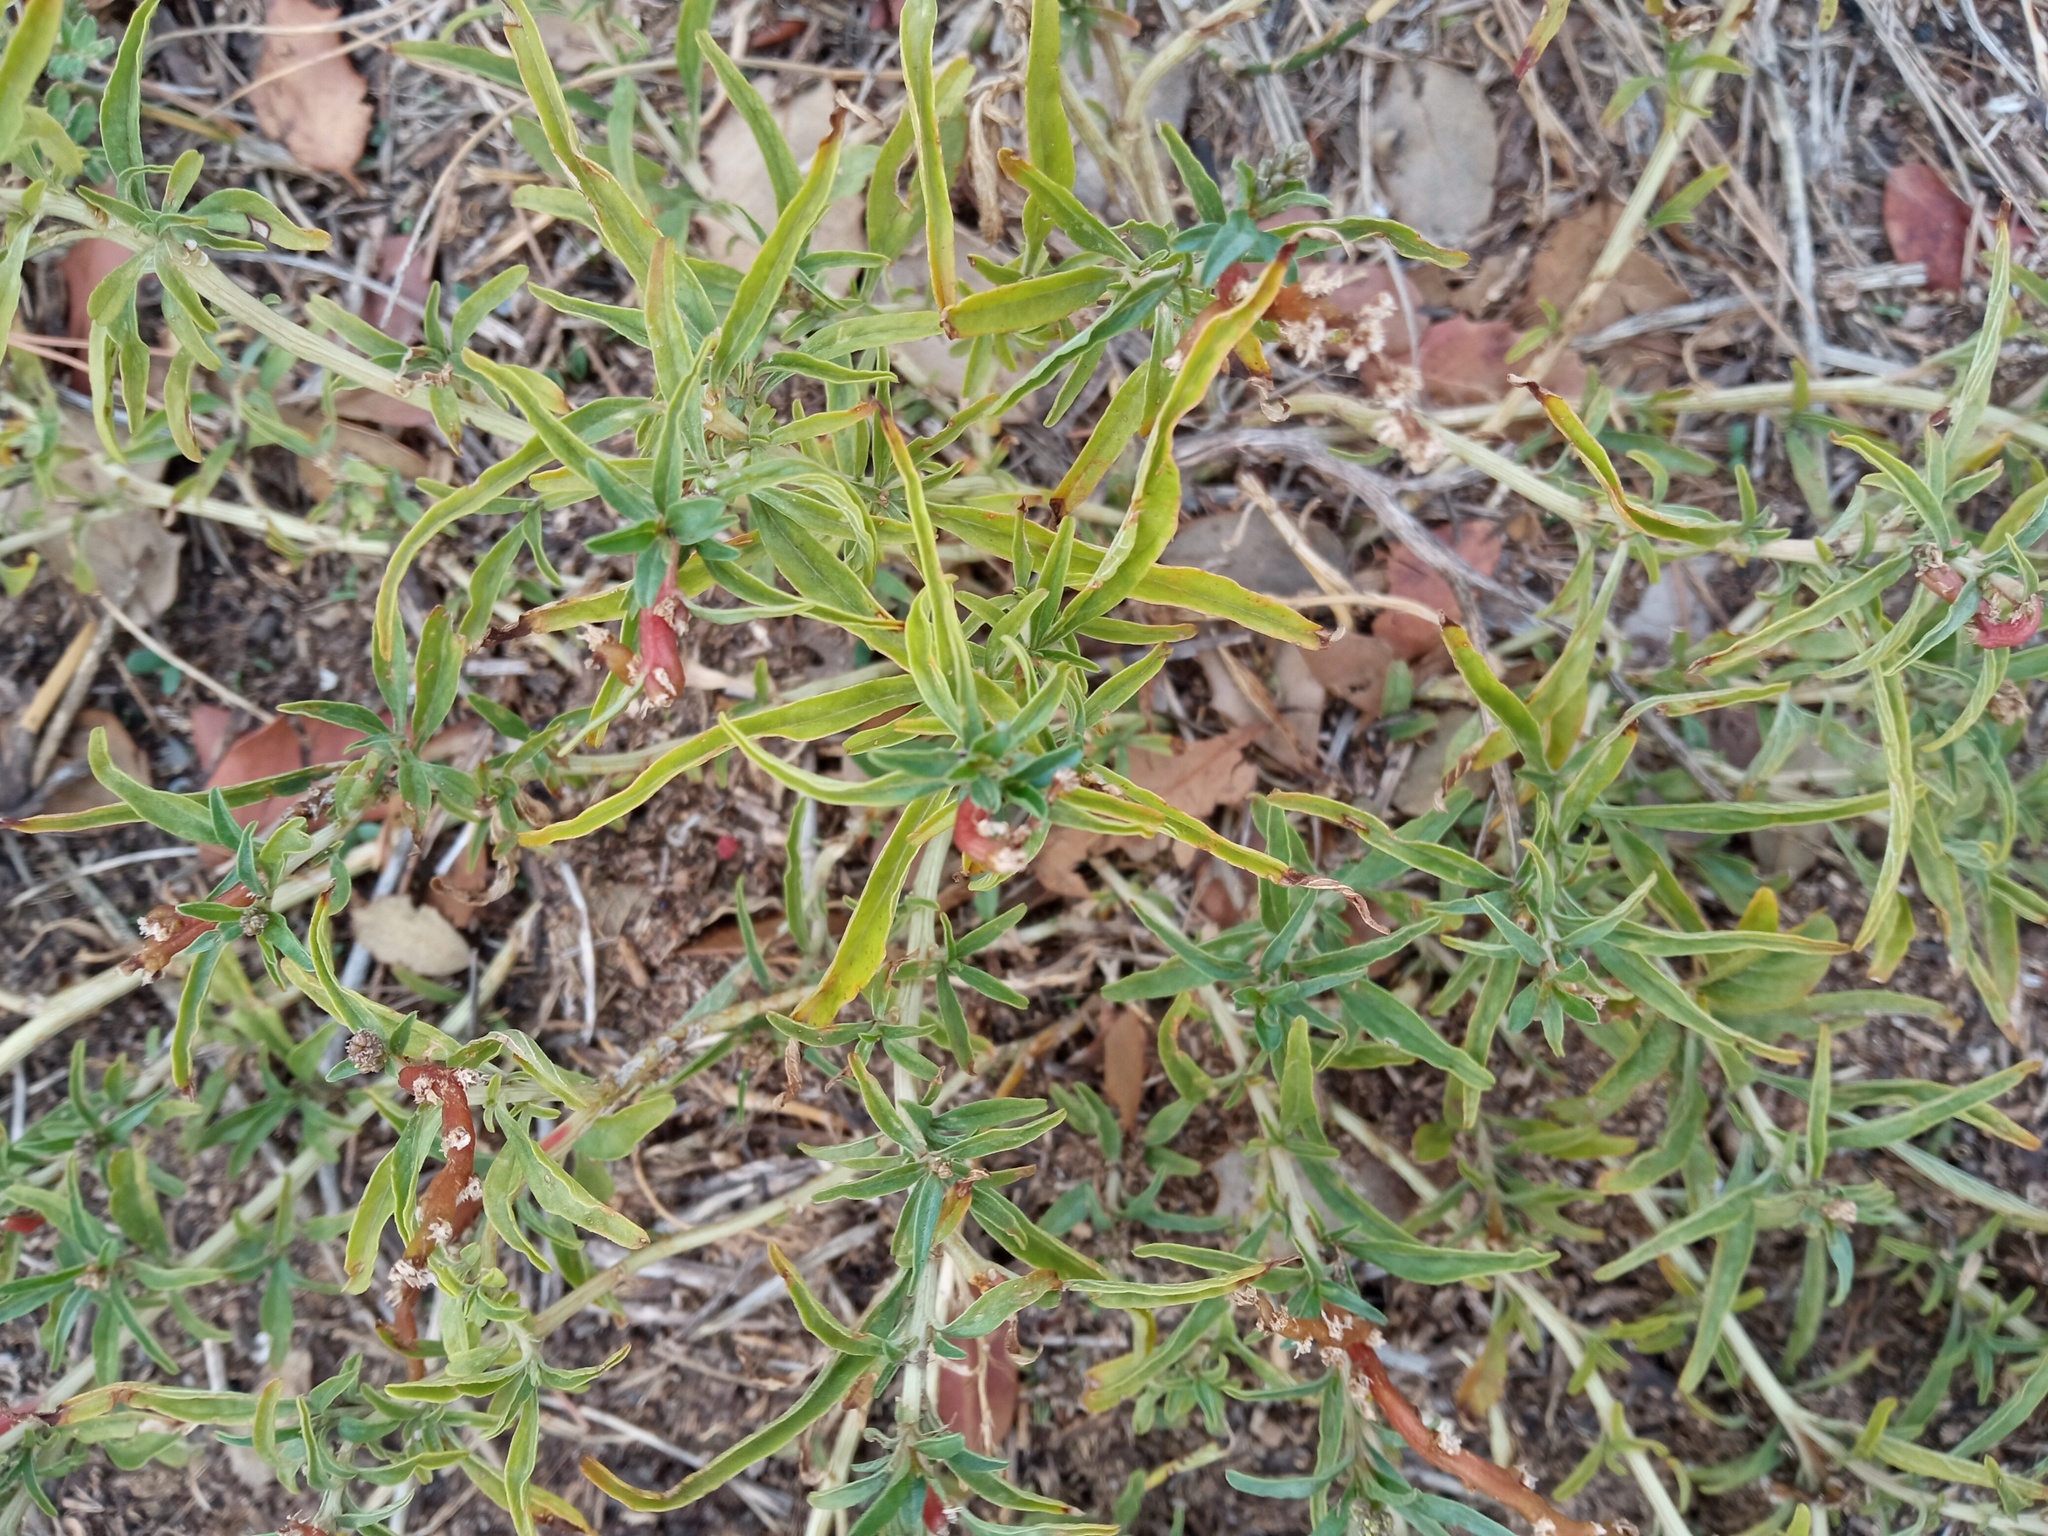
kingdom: Plantae
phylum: Tracheophyta
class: Magnoliopsida
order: Caryophyllales
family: Amaranthaceae
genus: Amaranthus
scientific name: Amaranthus muricatus
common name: African amaranth
